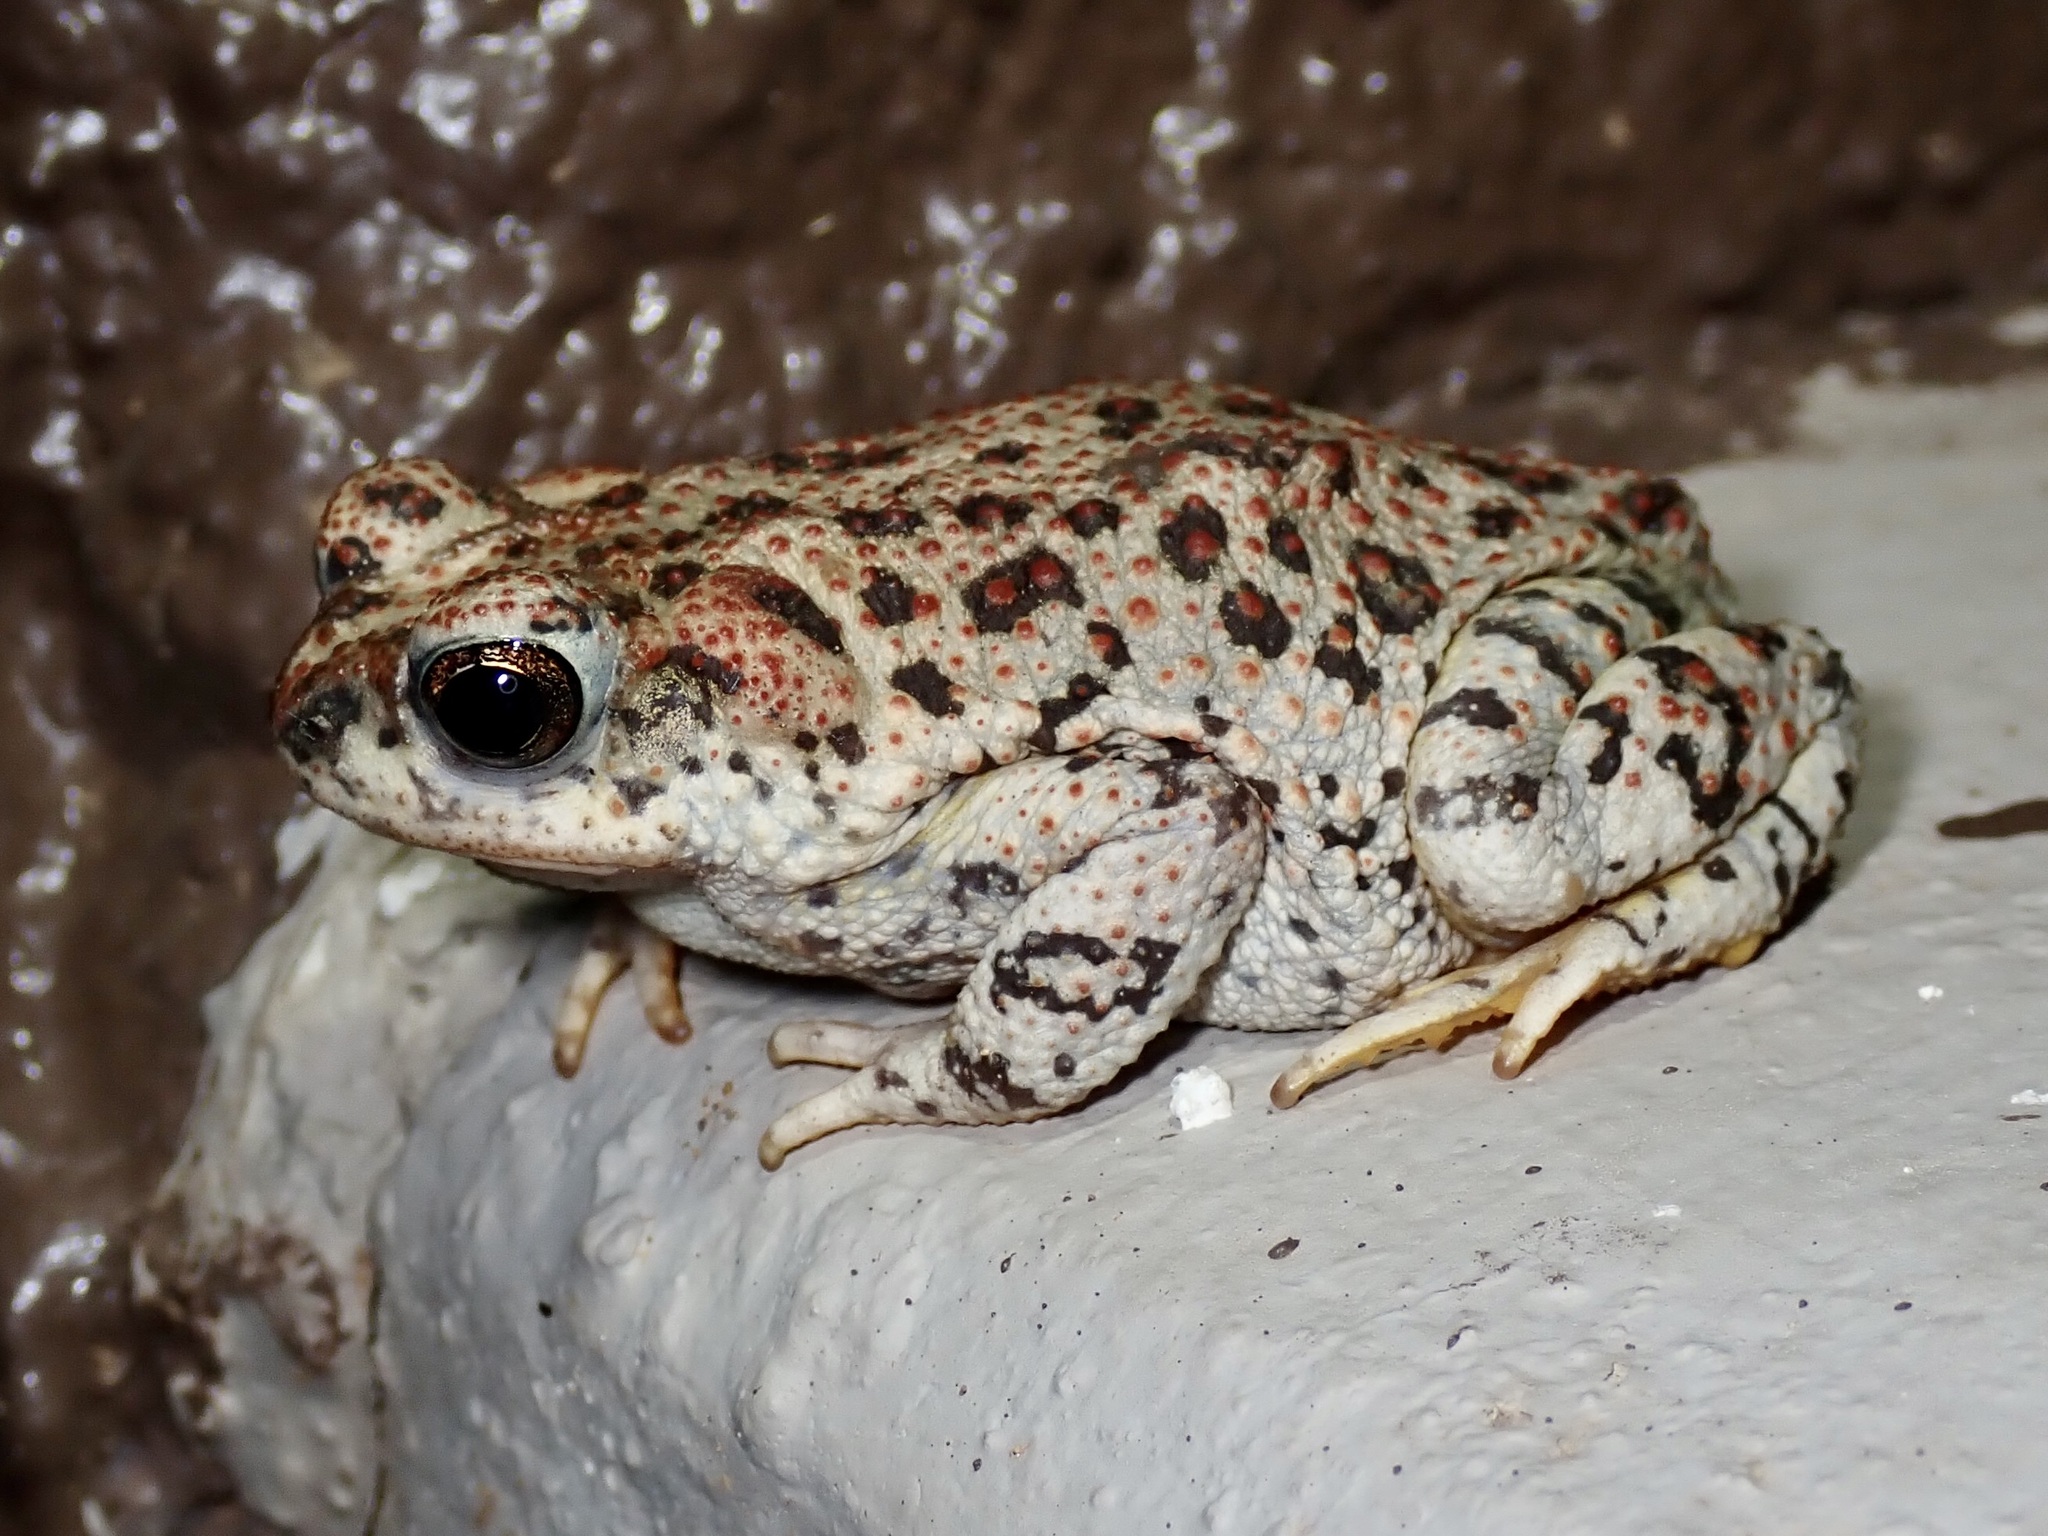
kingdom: Animalia
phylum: Chordata
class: Amphibia
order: Anura
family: Bufonidae
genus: Anaxyrus
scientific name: Anaxyrus punctatus
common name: Red-spotted toad
